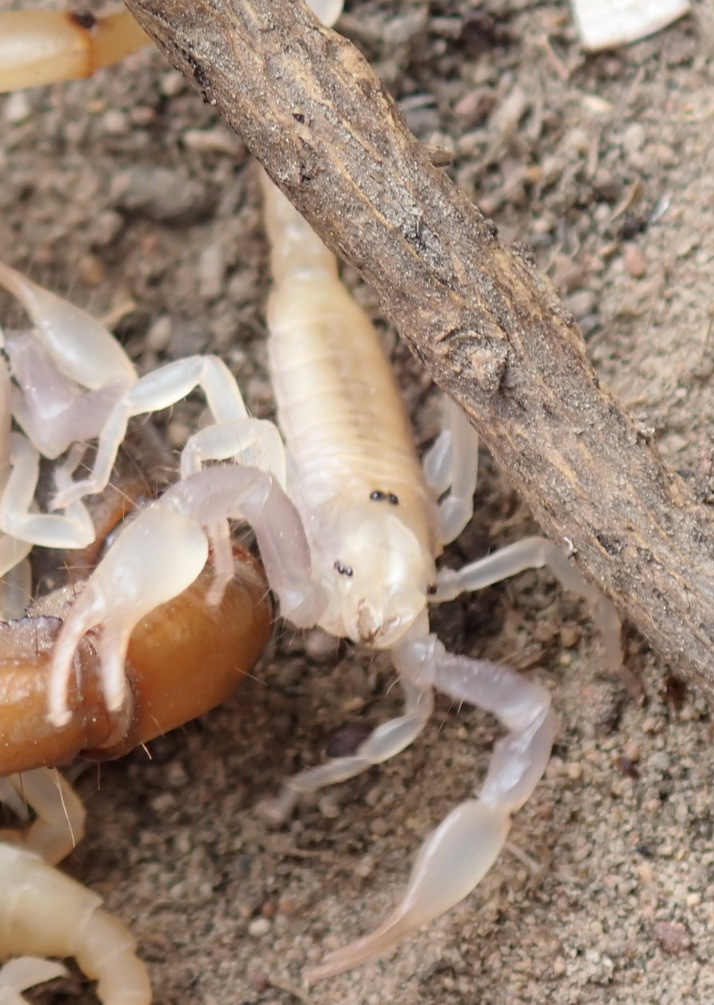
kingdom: Animalia
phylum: Arthropoda
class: Arachnida
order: Scorpiones
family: Scorpionidae
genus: Opistophthalmus
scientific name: Opistophthalmus karrooensis
